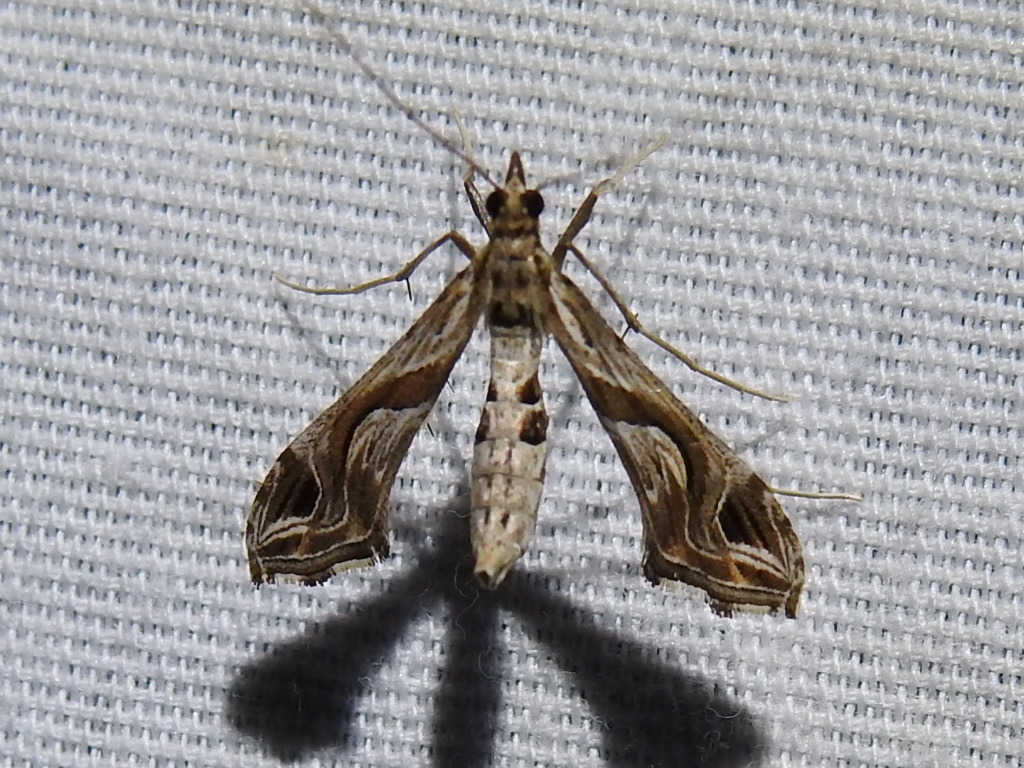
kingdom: Animalia
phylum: Arthropoda
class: Insecta
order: Lepidoptera
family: Crambidae
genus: Lineodes
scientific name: Lineodes integra
